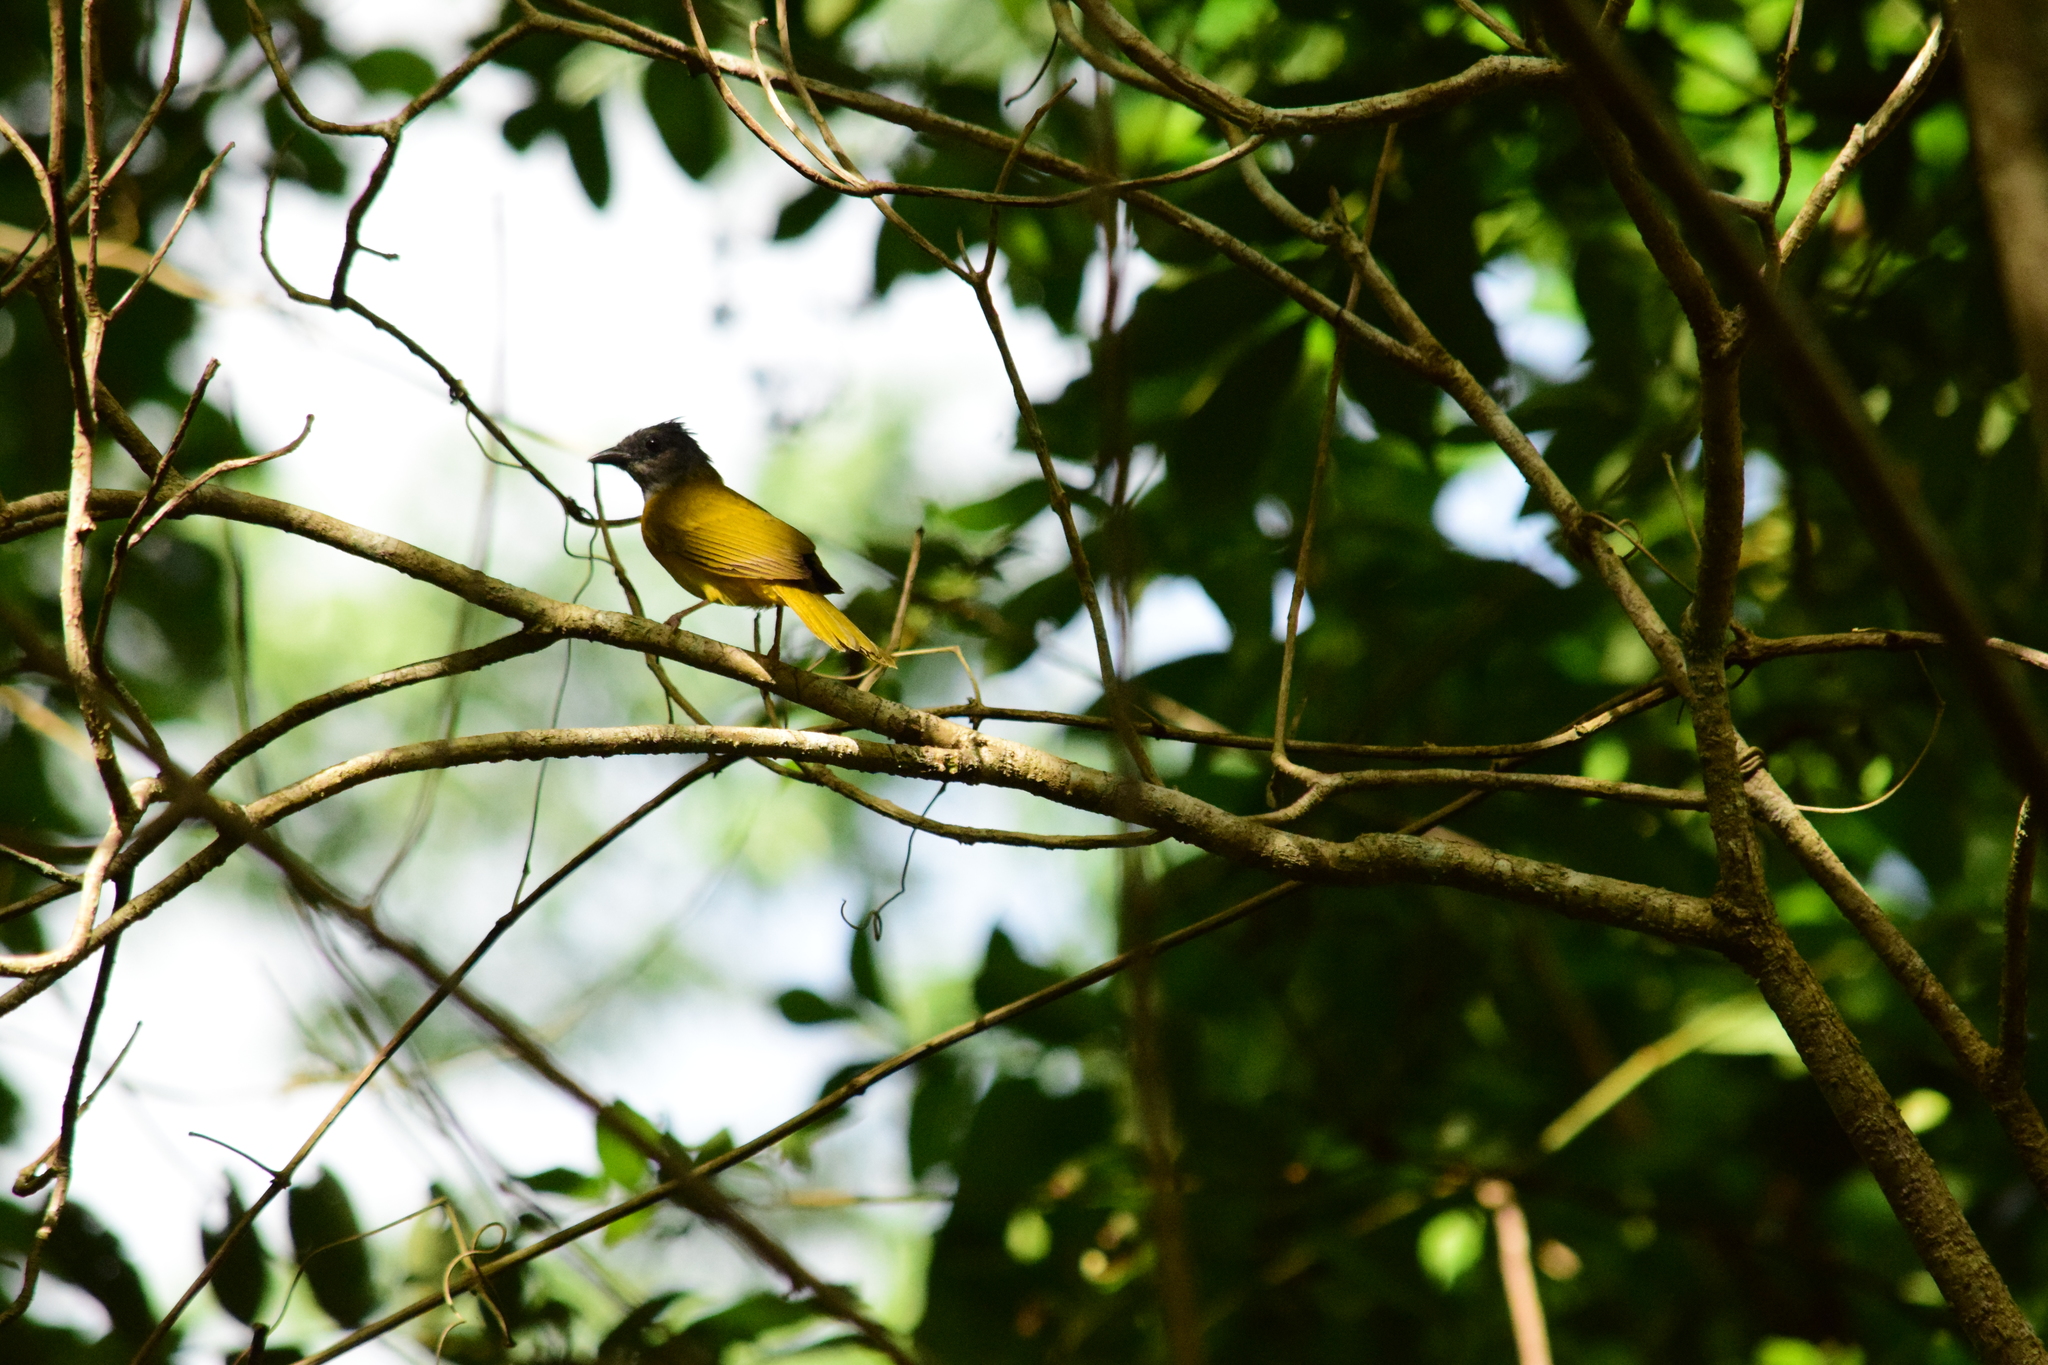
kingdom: Animalia
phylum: Chordata
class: Aves
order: Passeriformes
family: Thraupidae
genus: Eucometis
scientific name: Eucometis penicillata
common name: Grey-headed tanager
